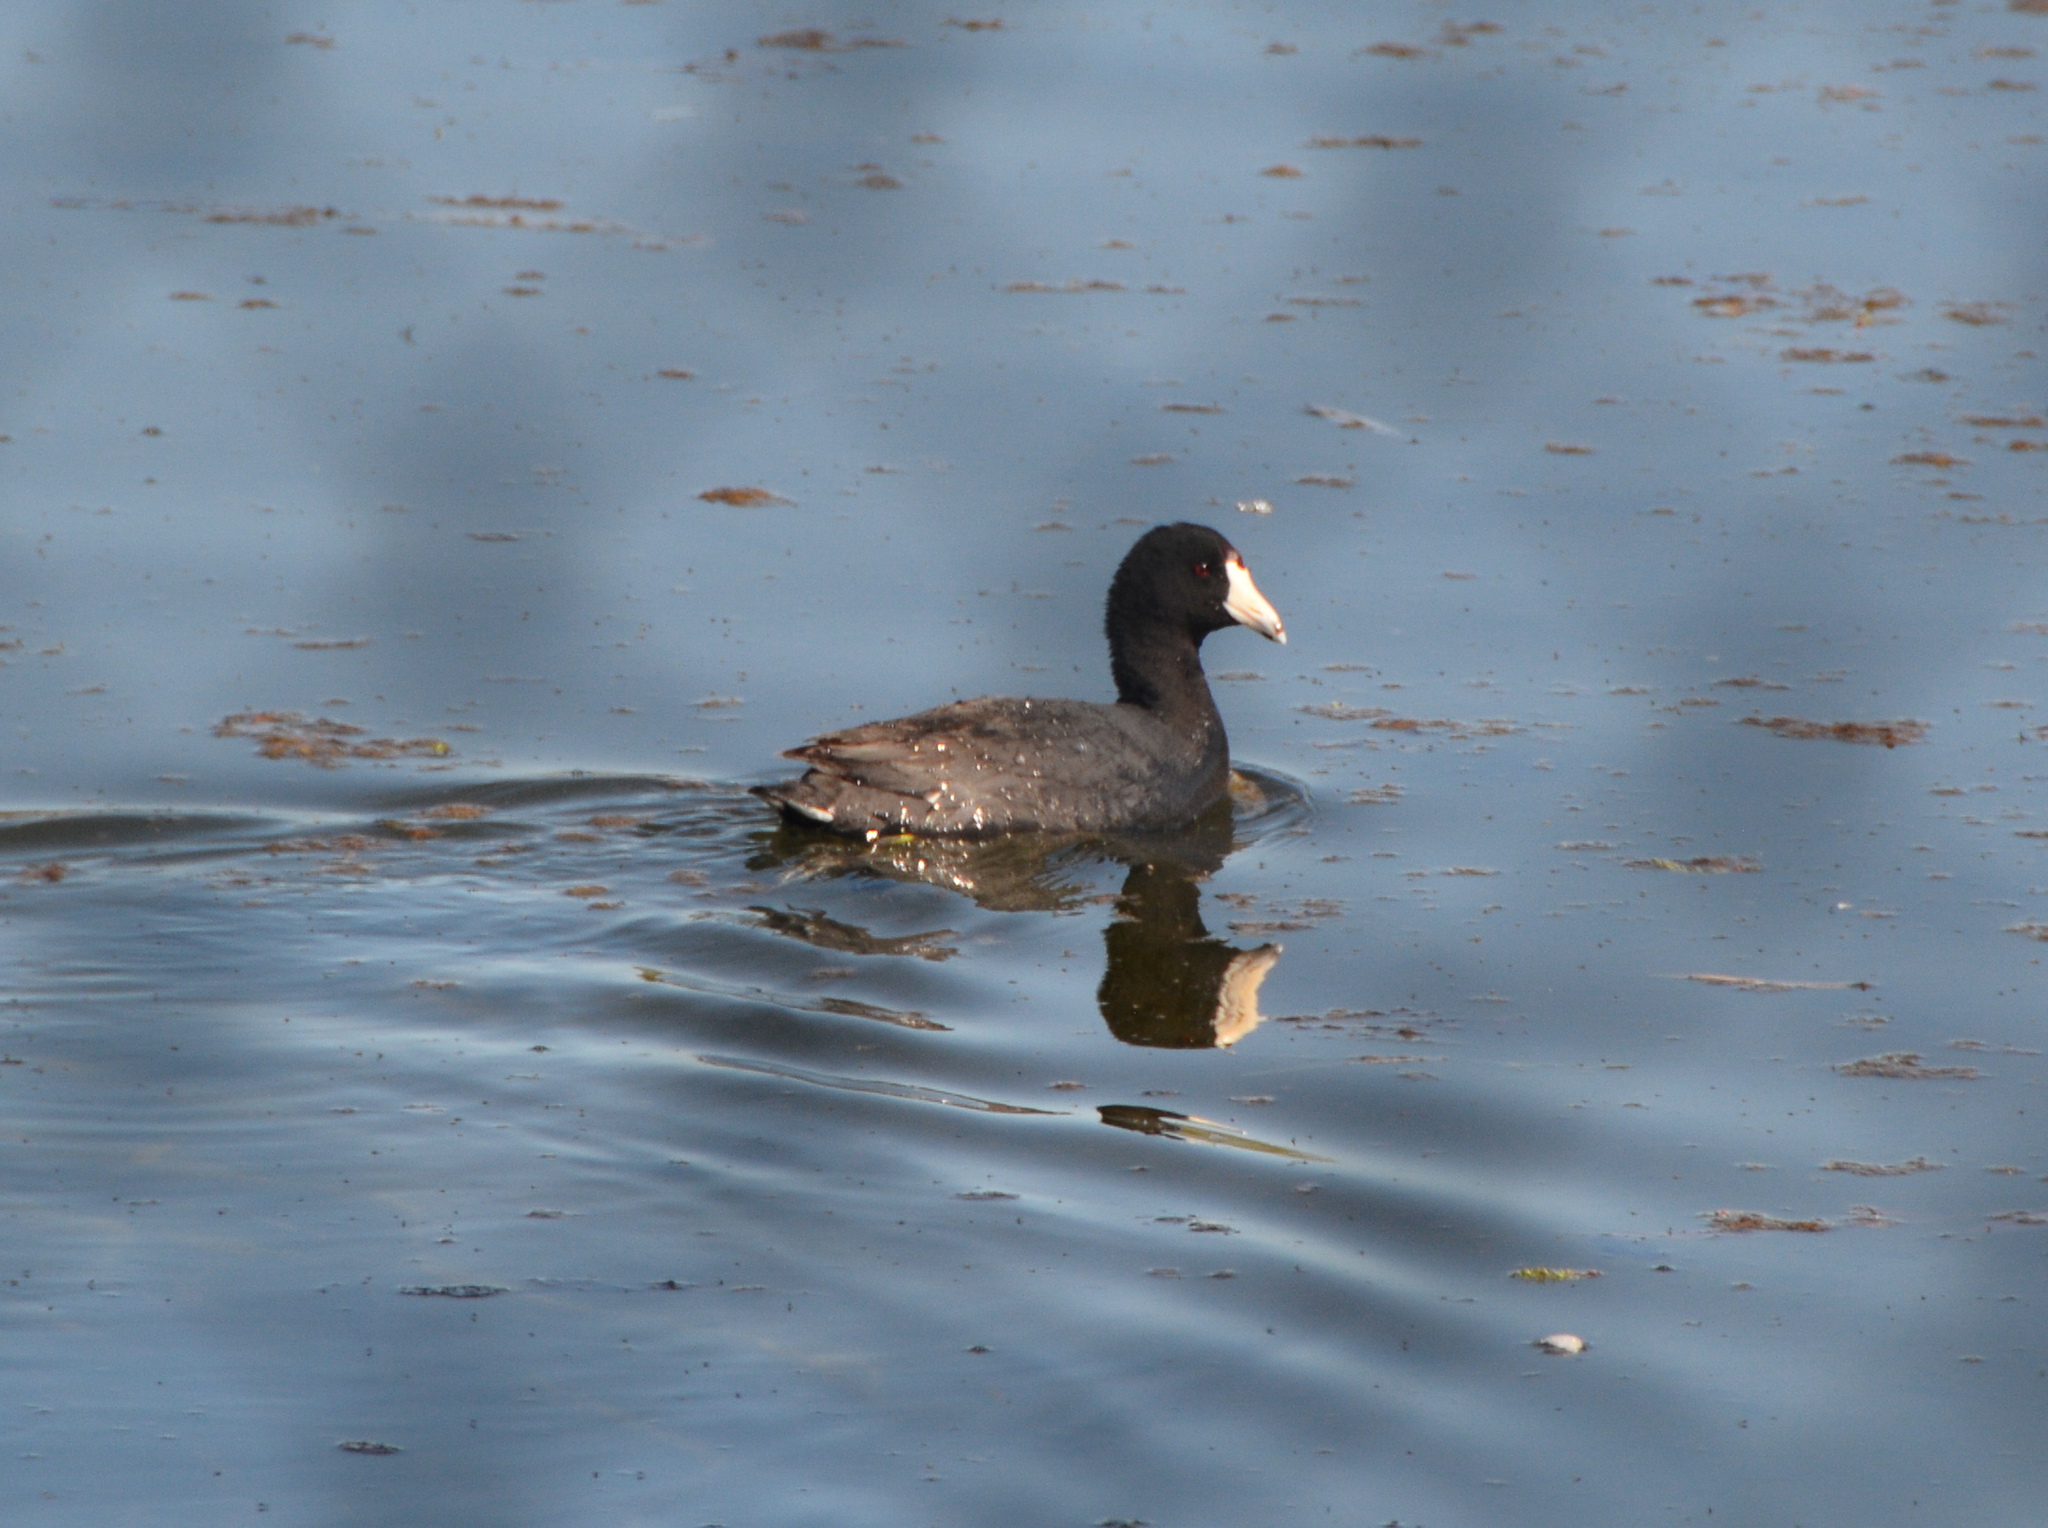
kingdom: Animalia
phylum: Chordata
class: Aves
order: Gruiformes
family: Rallidae
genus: Fulica
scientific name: Fulica americana
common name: American coot
